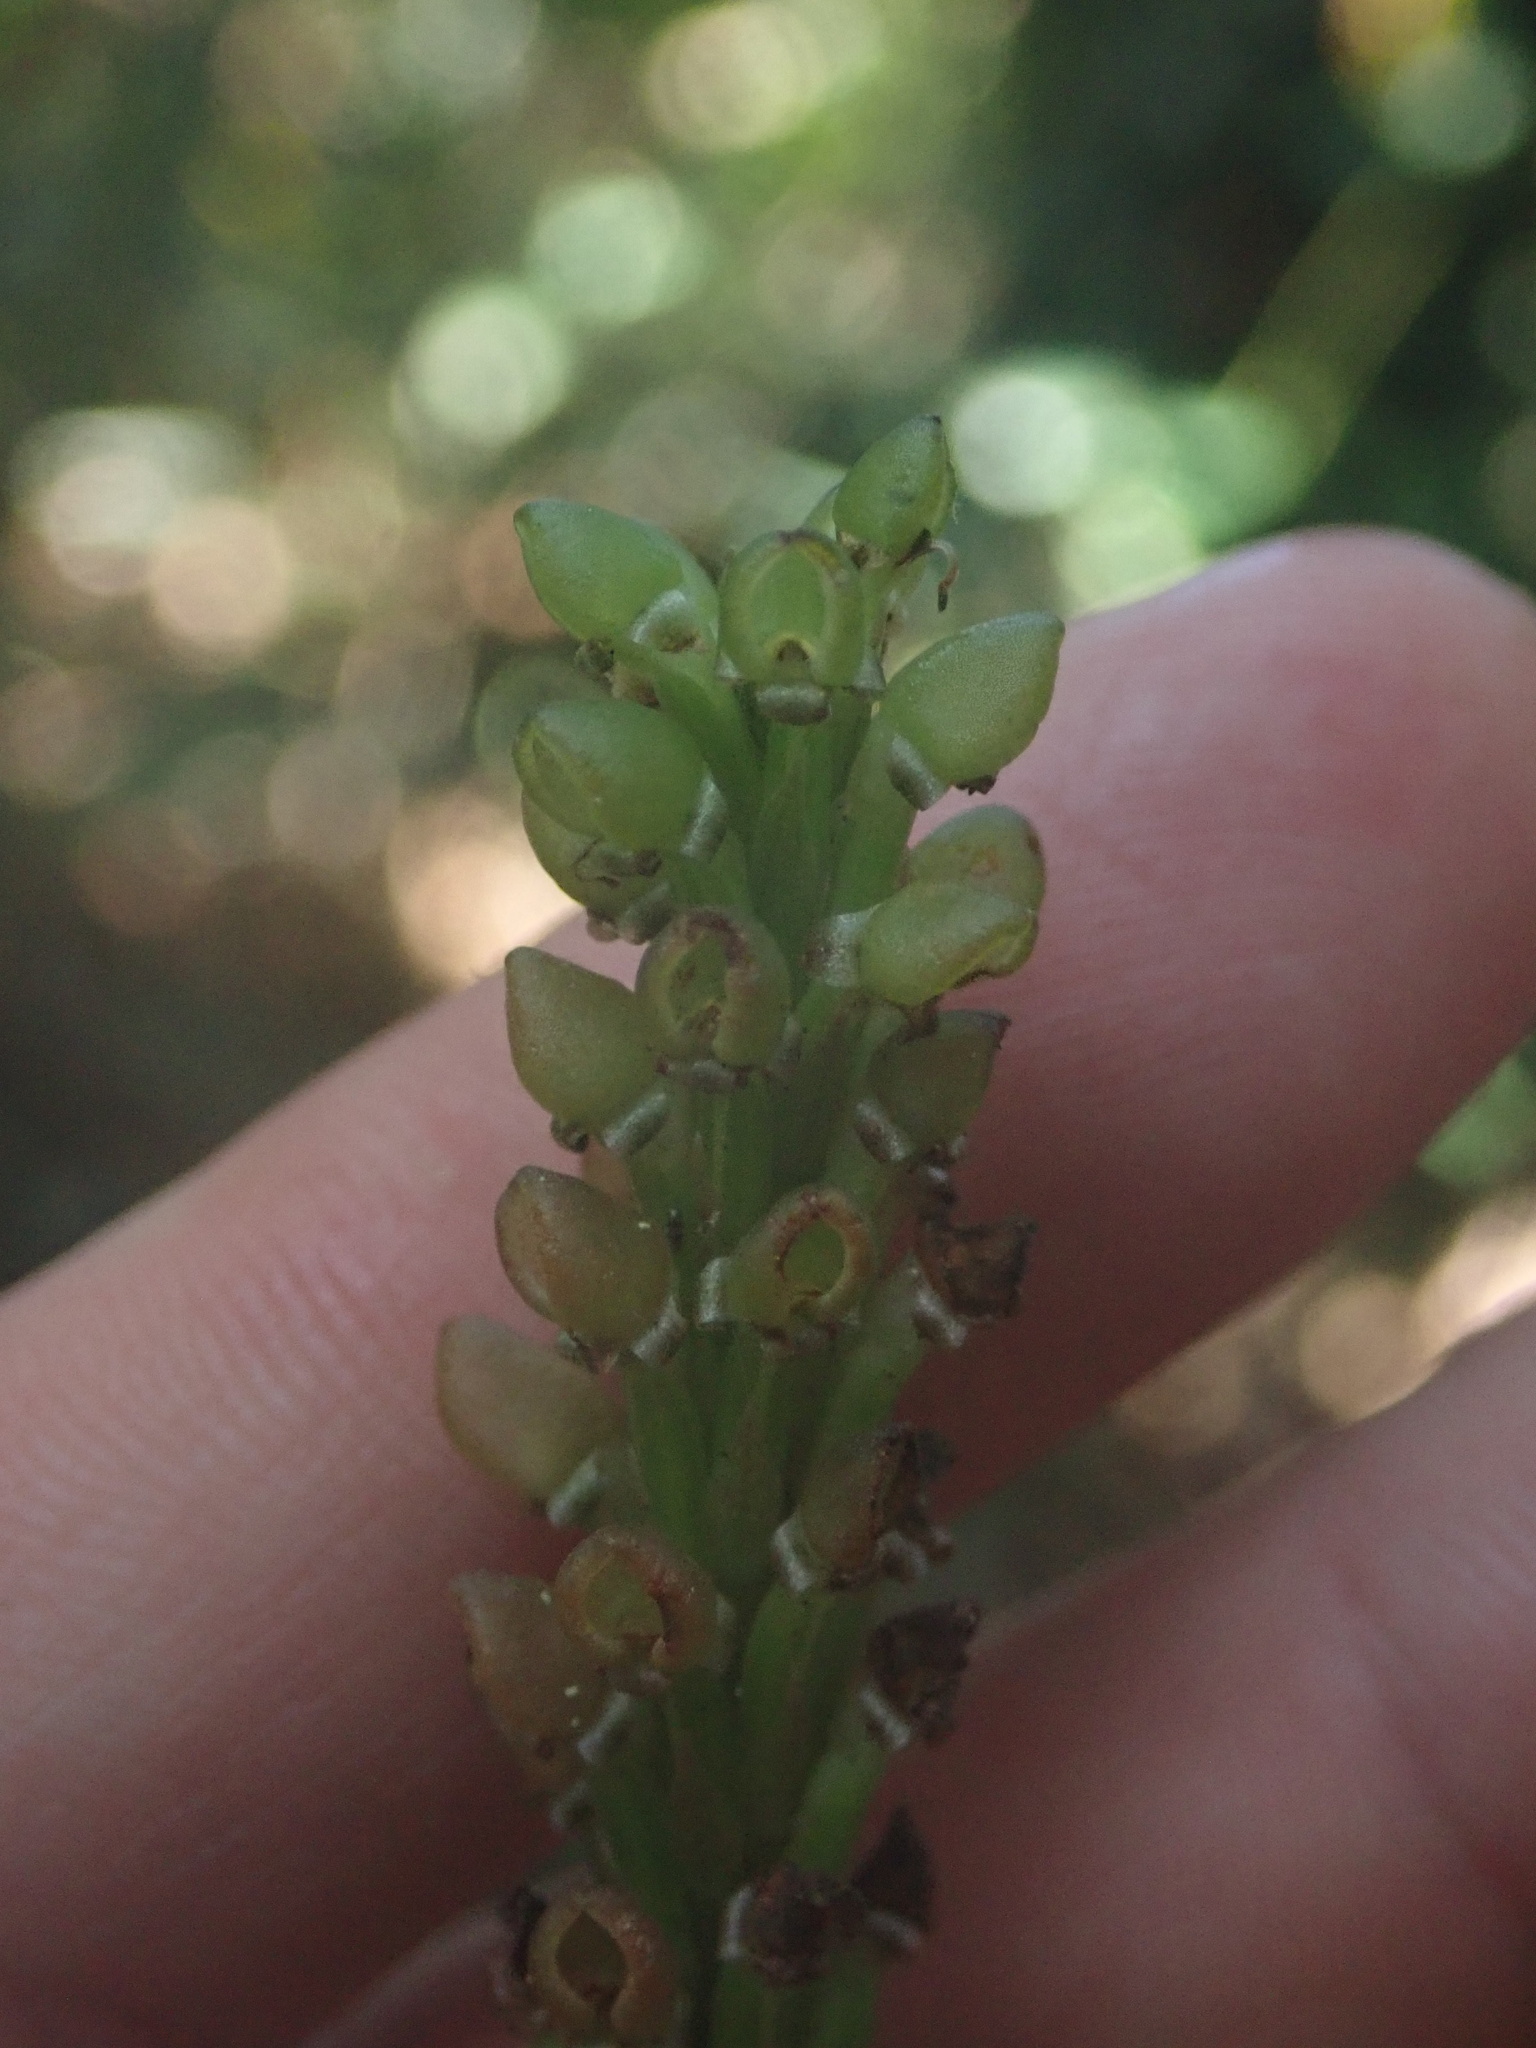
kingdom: Plantae
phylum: Tracheophyta
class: Liliopsida
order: Asparagales
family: Orchidaceae
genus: Prescottia
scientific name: Prescottia stachyodes
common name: Mountain prescott orchid
